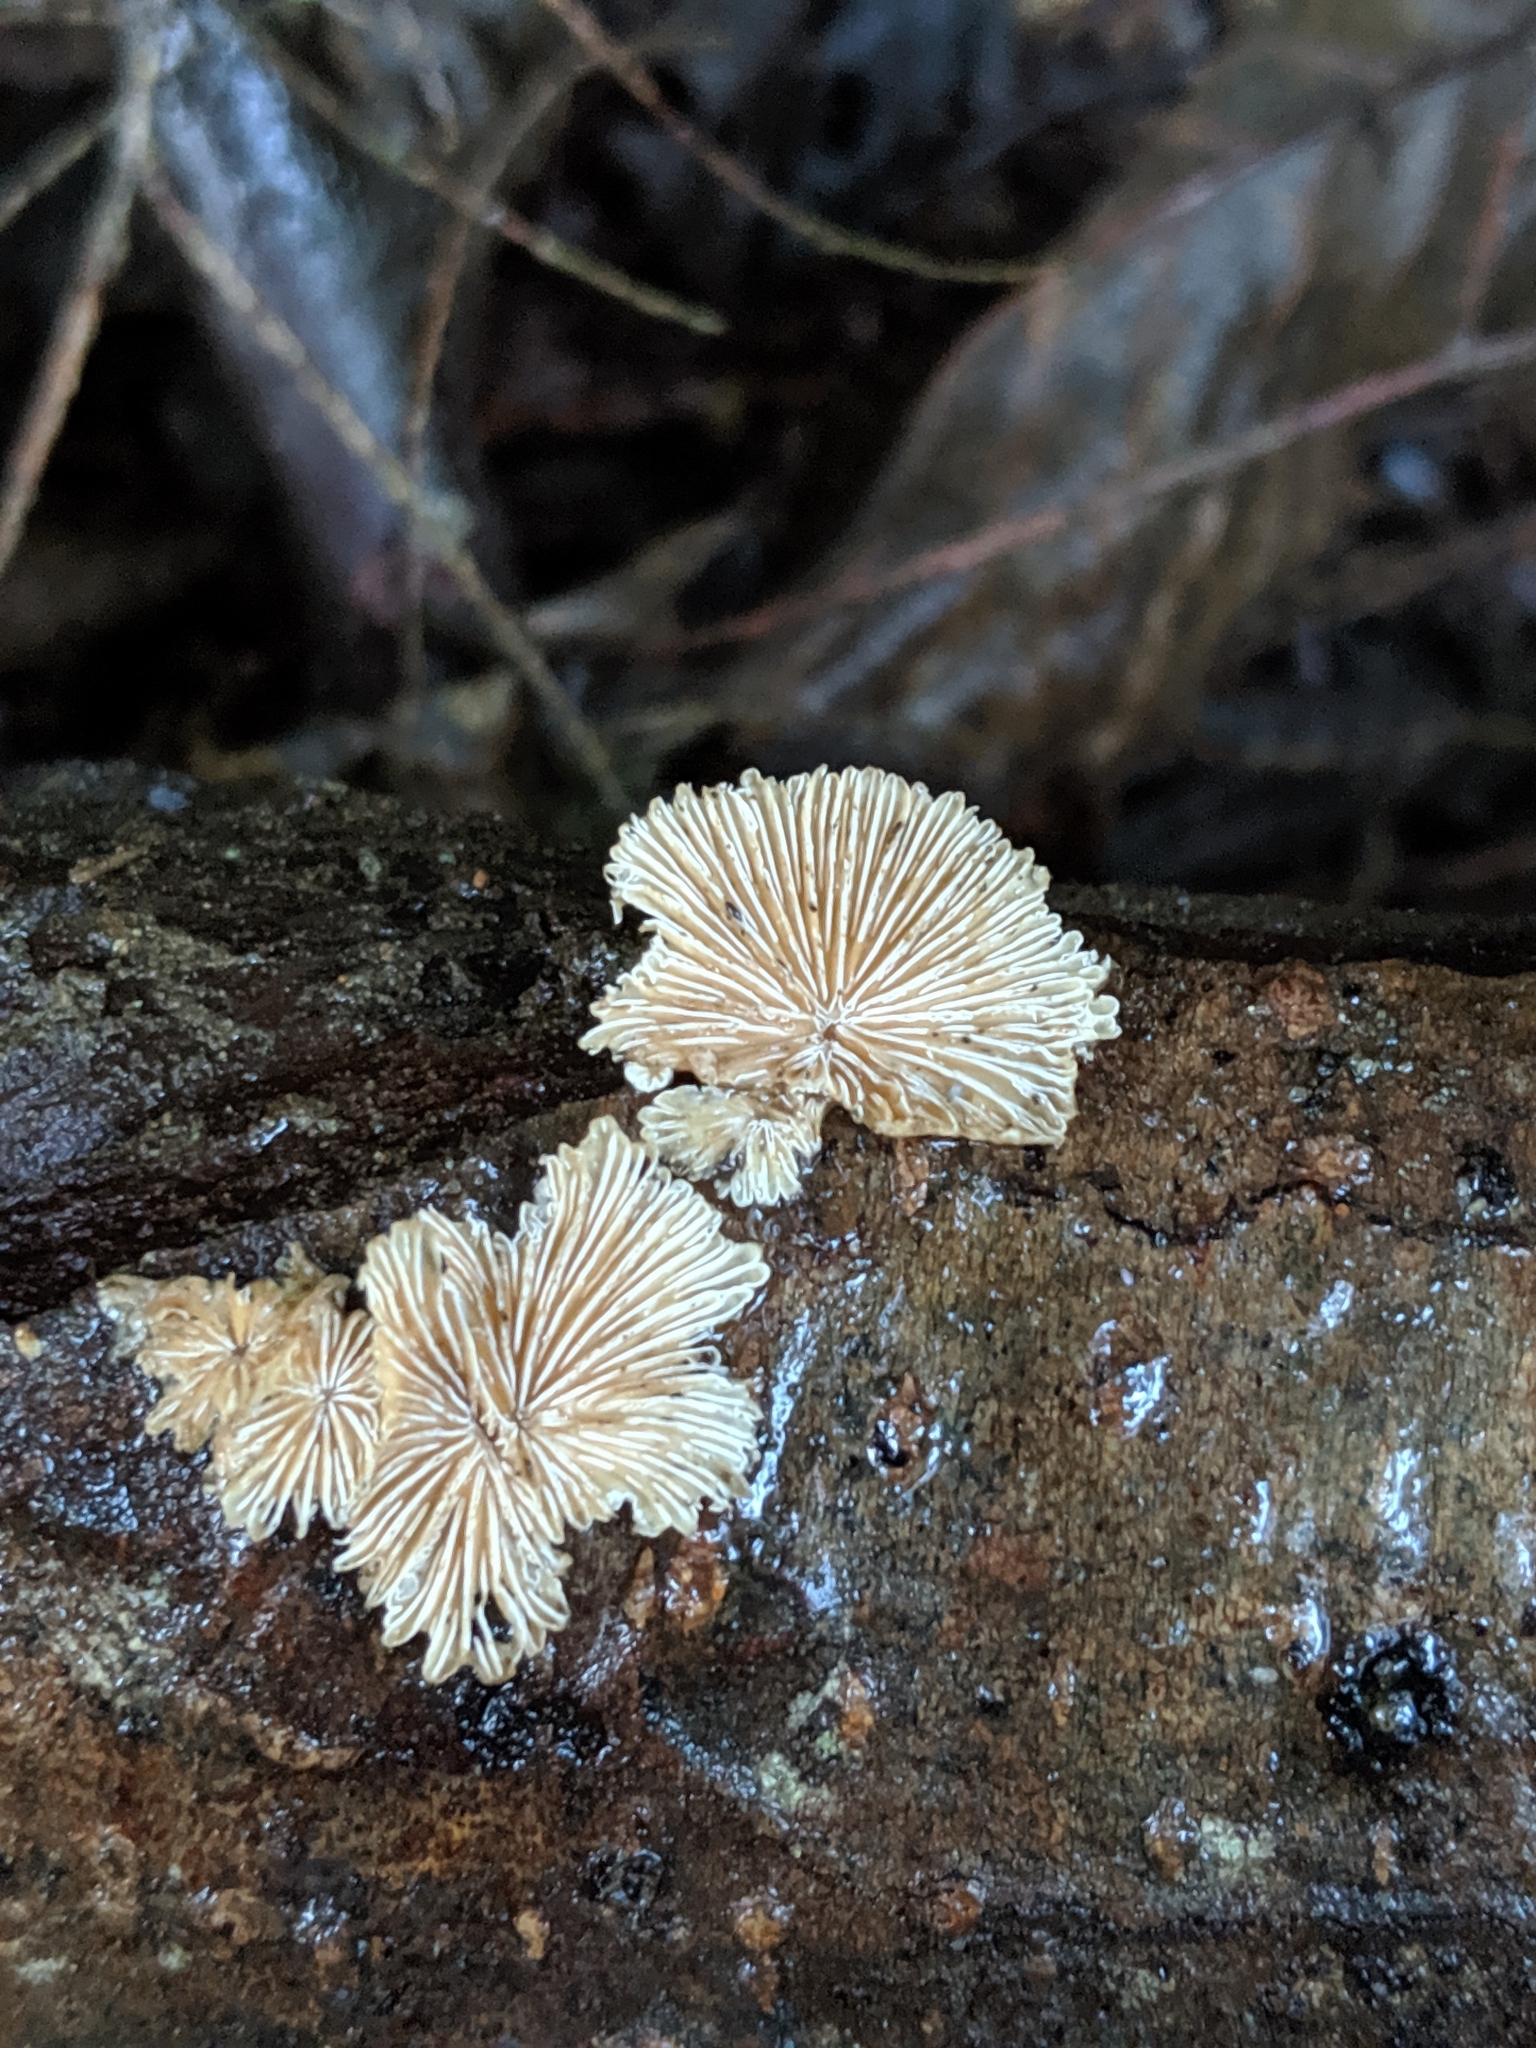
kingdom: Fungi
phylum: Basidiomycota
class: Agaricomycetes
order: Agaricales
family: Schizophyllaceae
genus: Schizophyllum
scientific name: Schizophyllum commune
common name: Common porecrust
